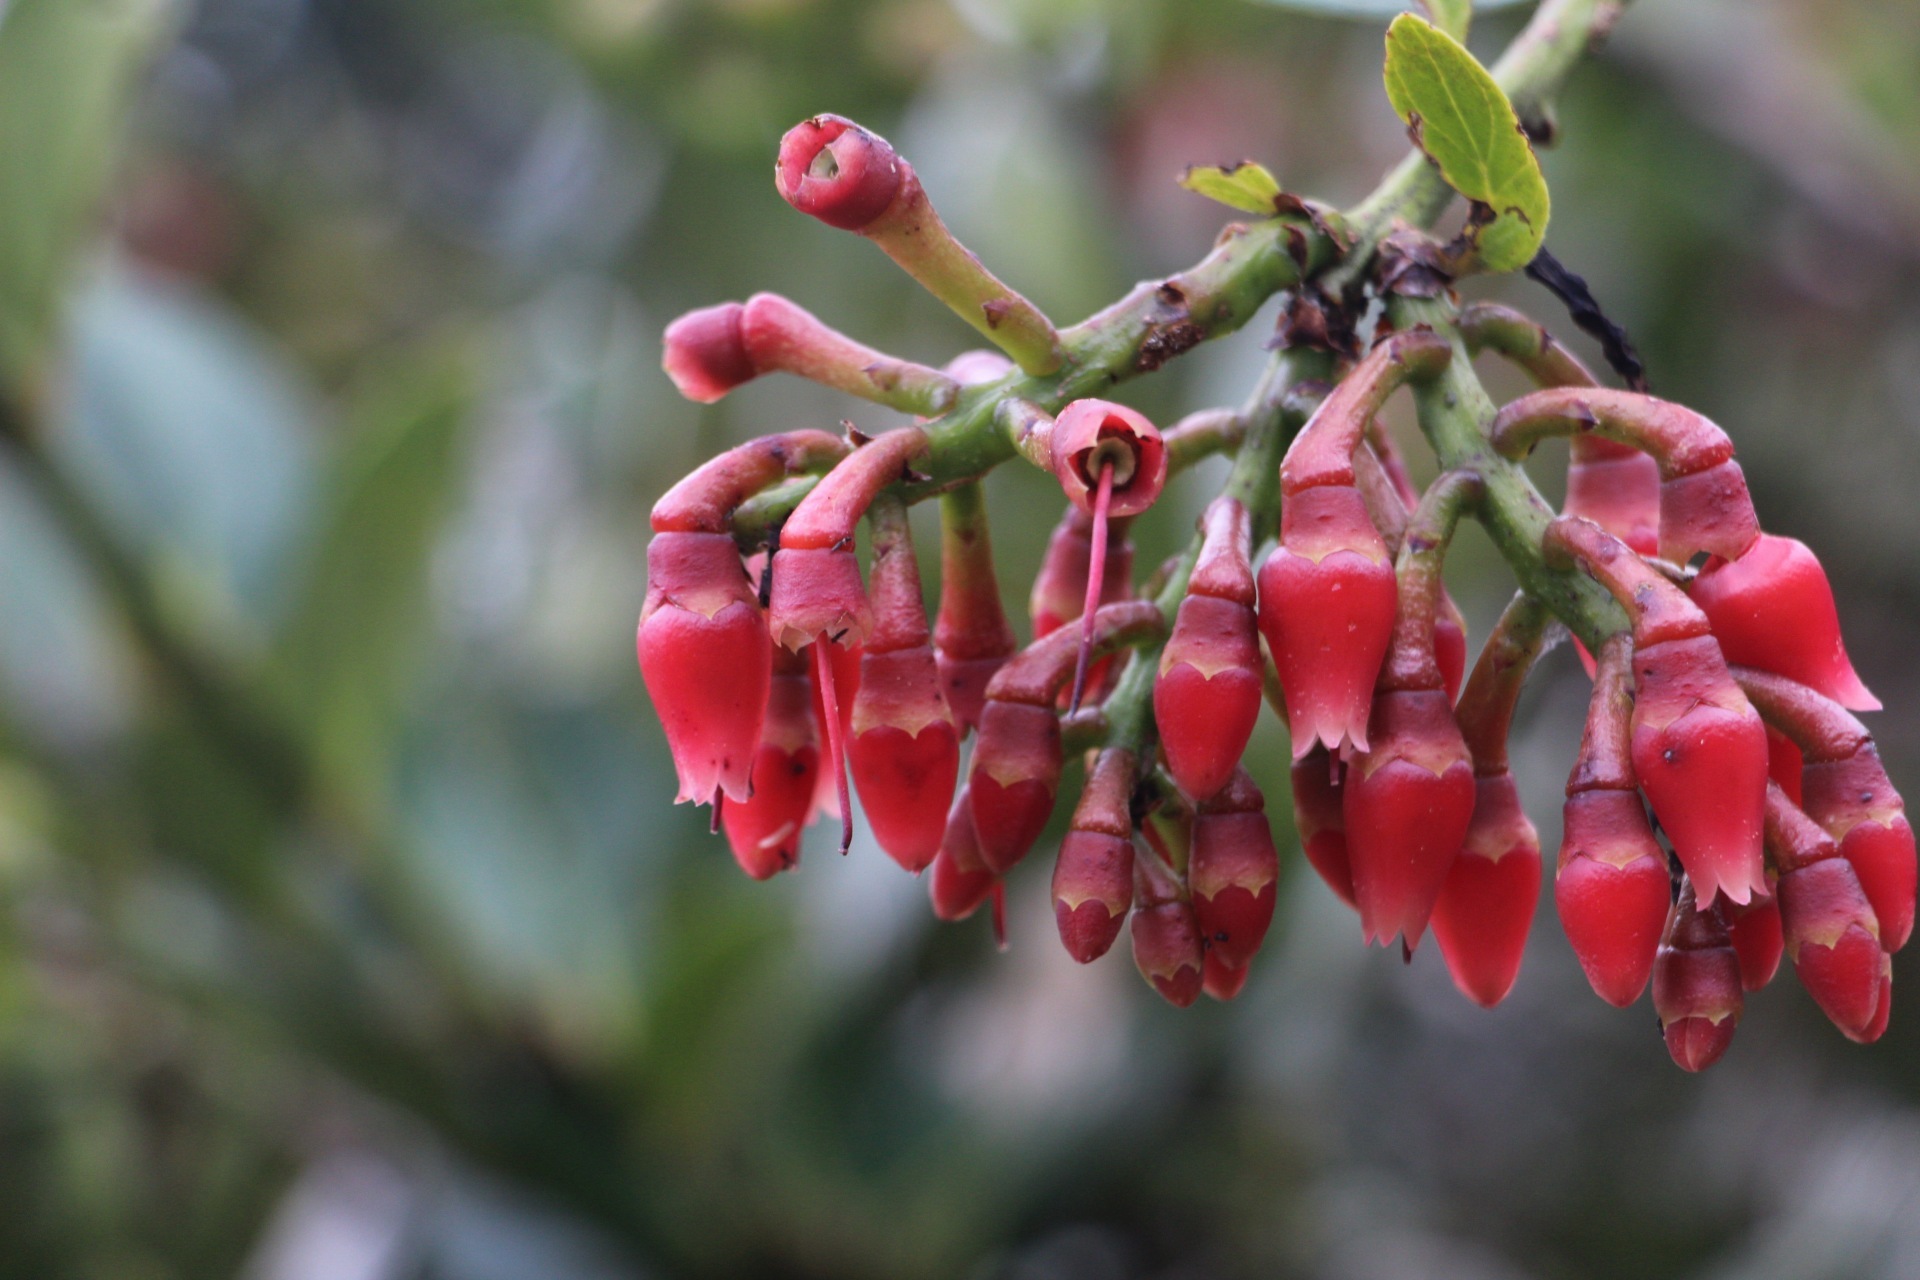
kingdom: Plantae
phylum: Tracheophyta
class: Magnoliopsida
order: Ericales
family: Ericaceae
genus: Macleania
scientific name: Macleania rupestris
